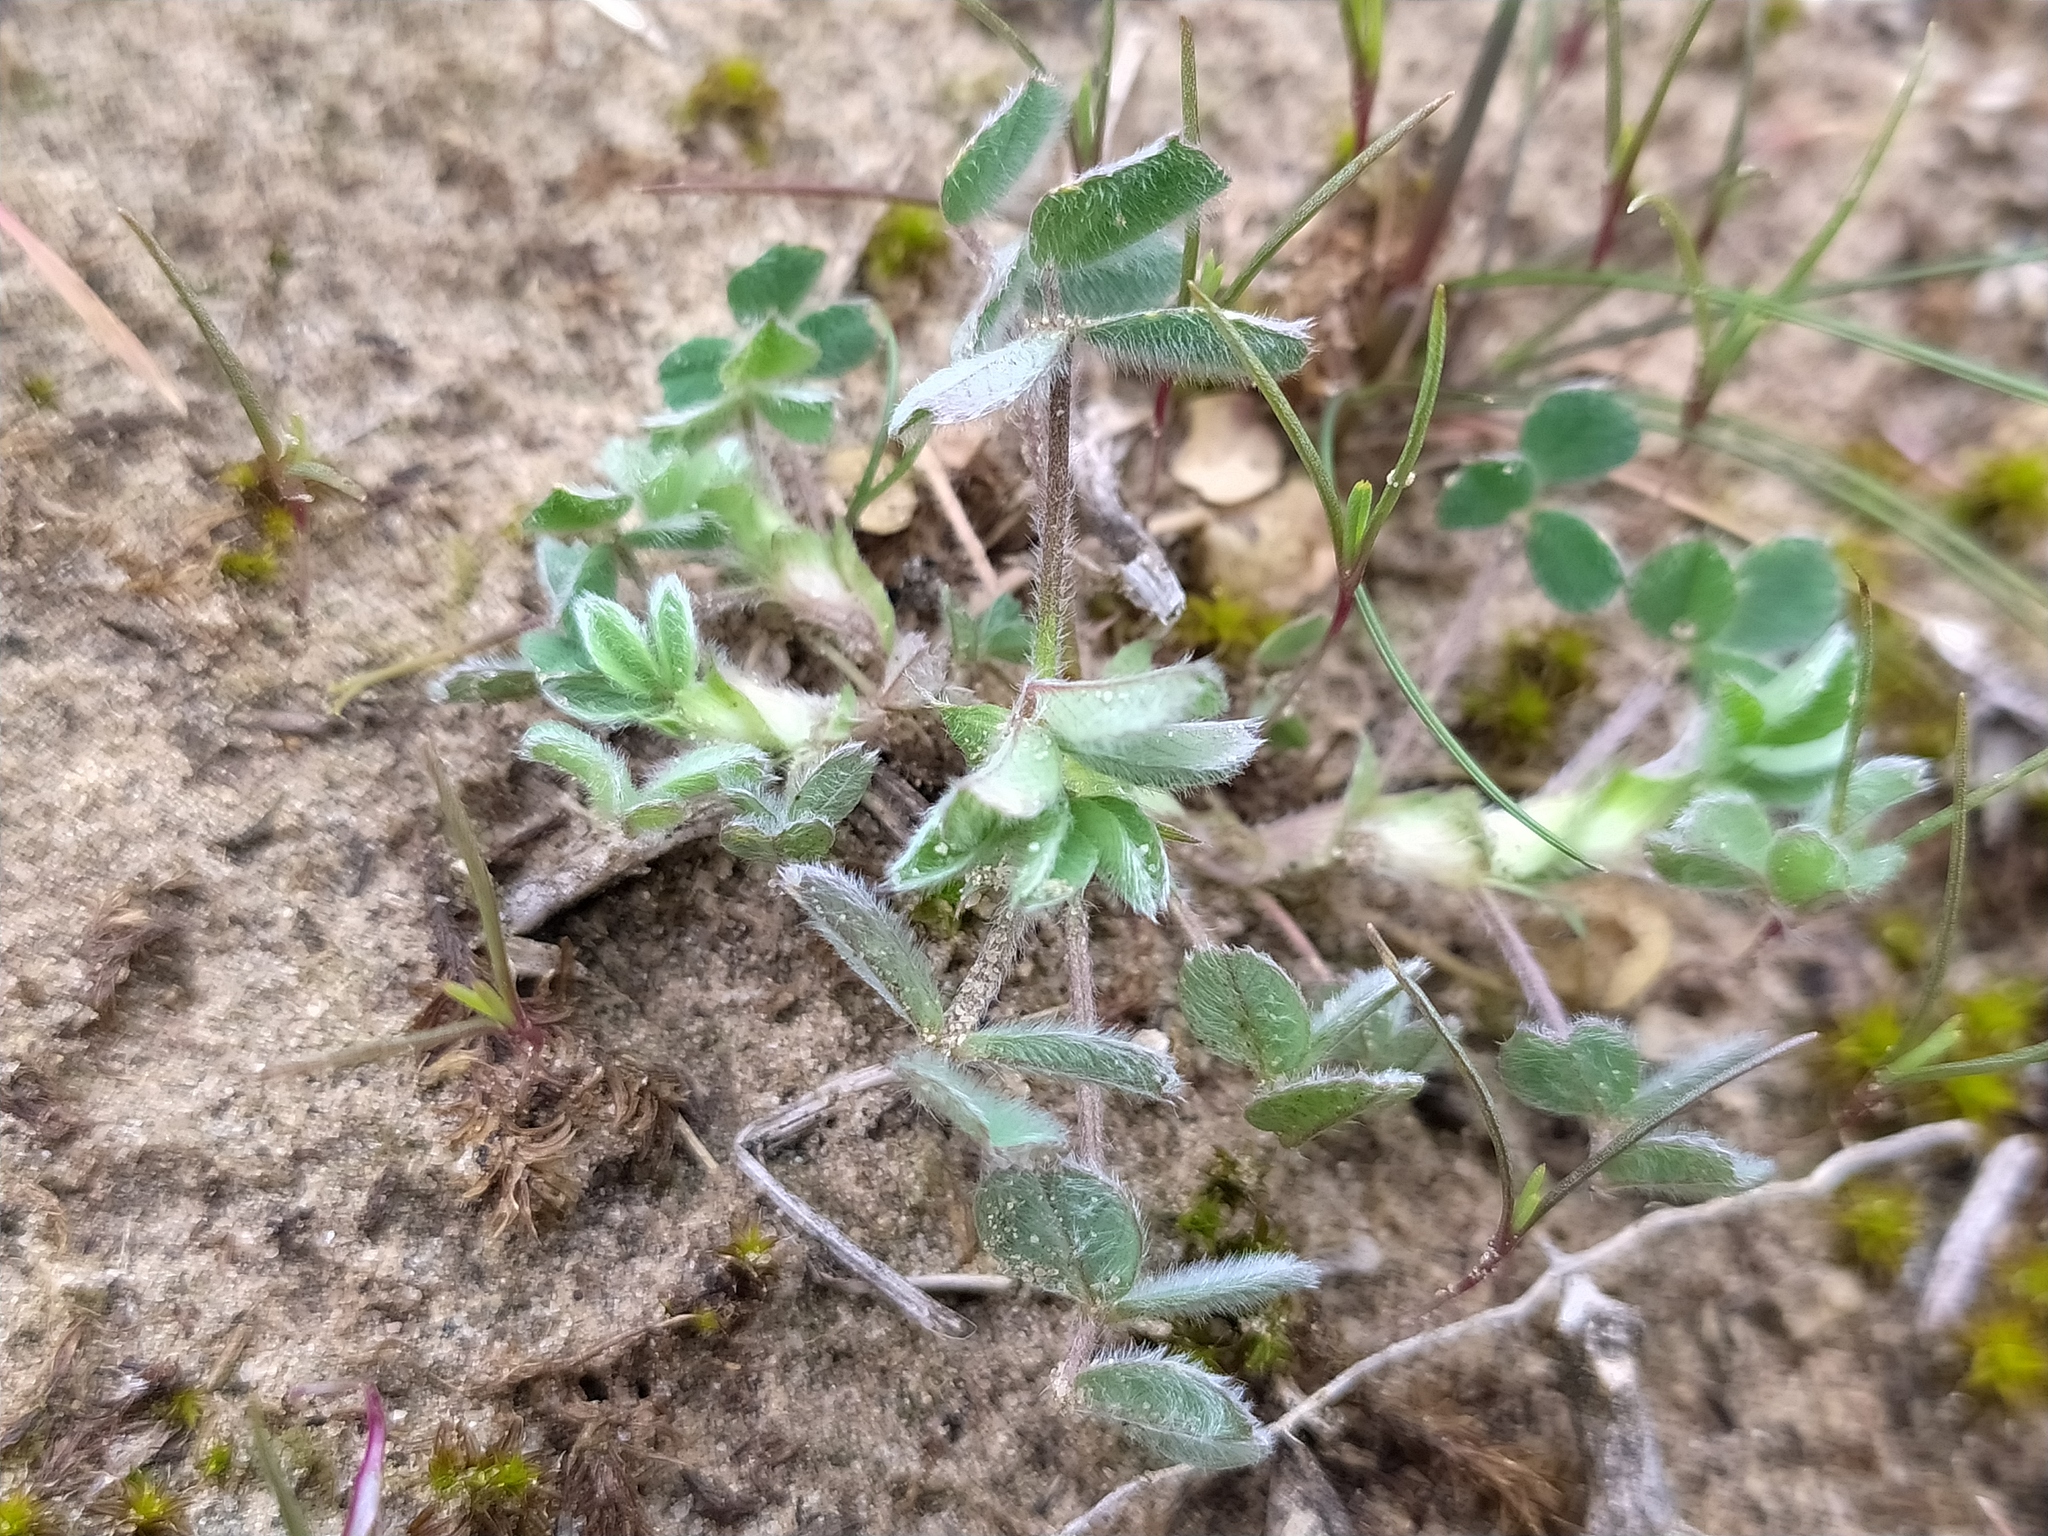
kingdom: Plantae
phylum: Tracheophyta
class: Magnoliopsida
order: Fabales
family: Fabaceae
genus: Medicago
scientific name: Medicago minima
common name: Little bur-clover
